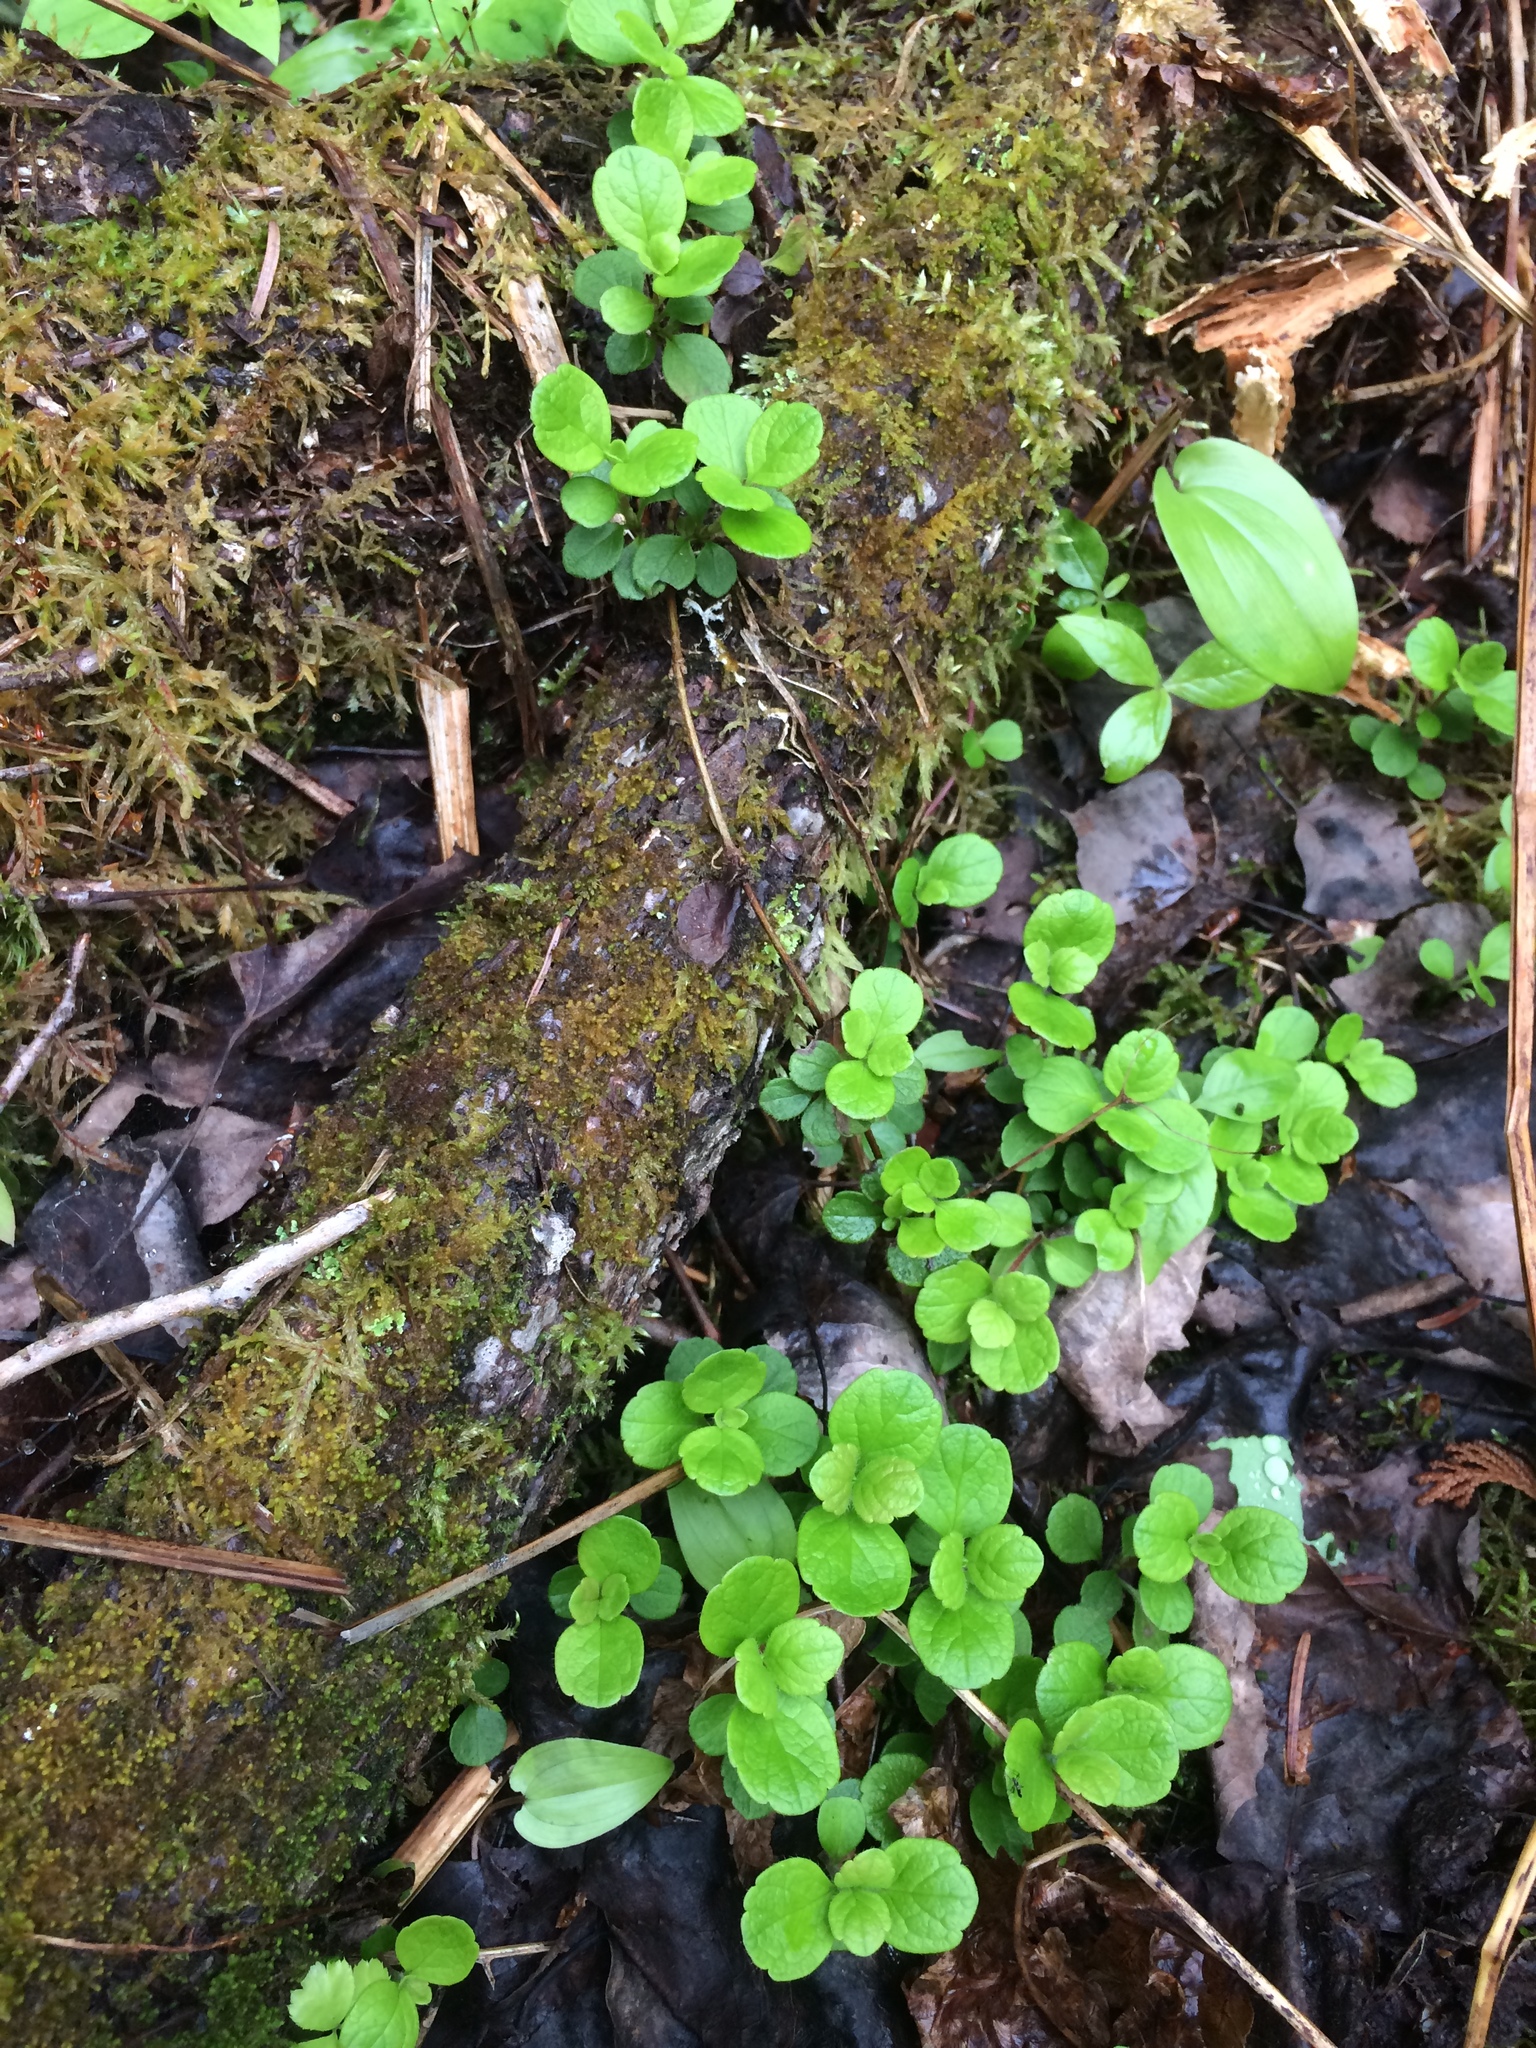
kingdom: Plantae
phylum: Tracheophyta
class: Magnoliopsida
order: Dipsacales
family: Caprifoliaceae
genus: Linnaea
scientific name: Linnaea borealis
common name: Twinflower
